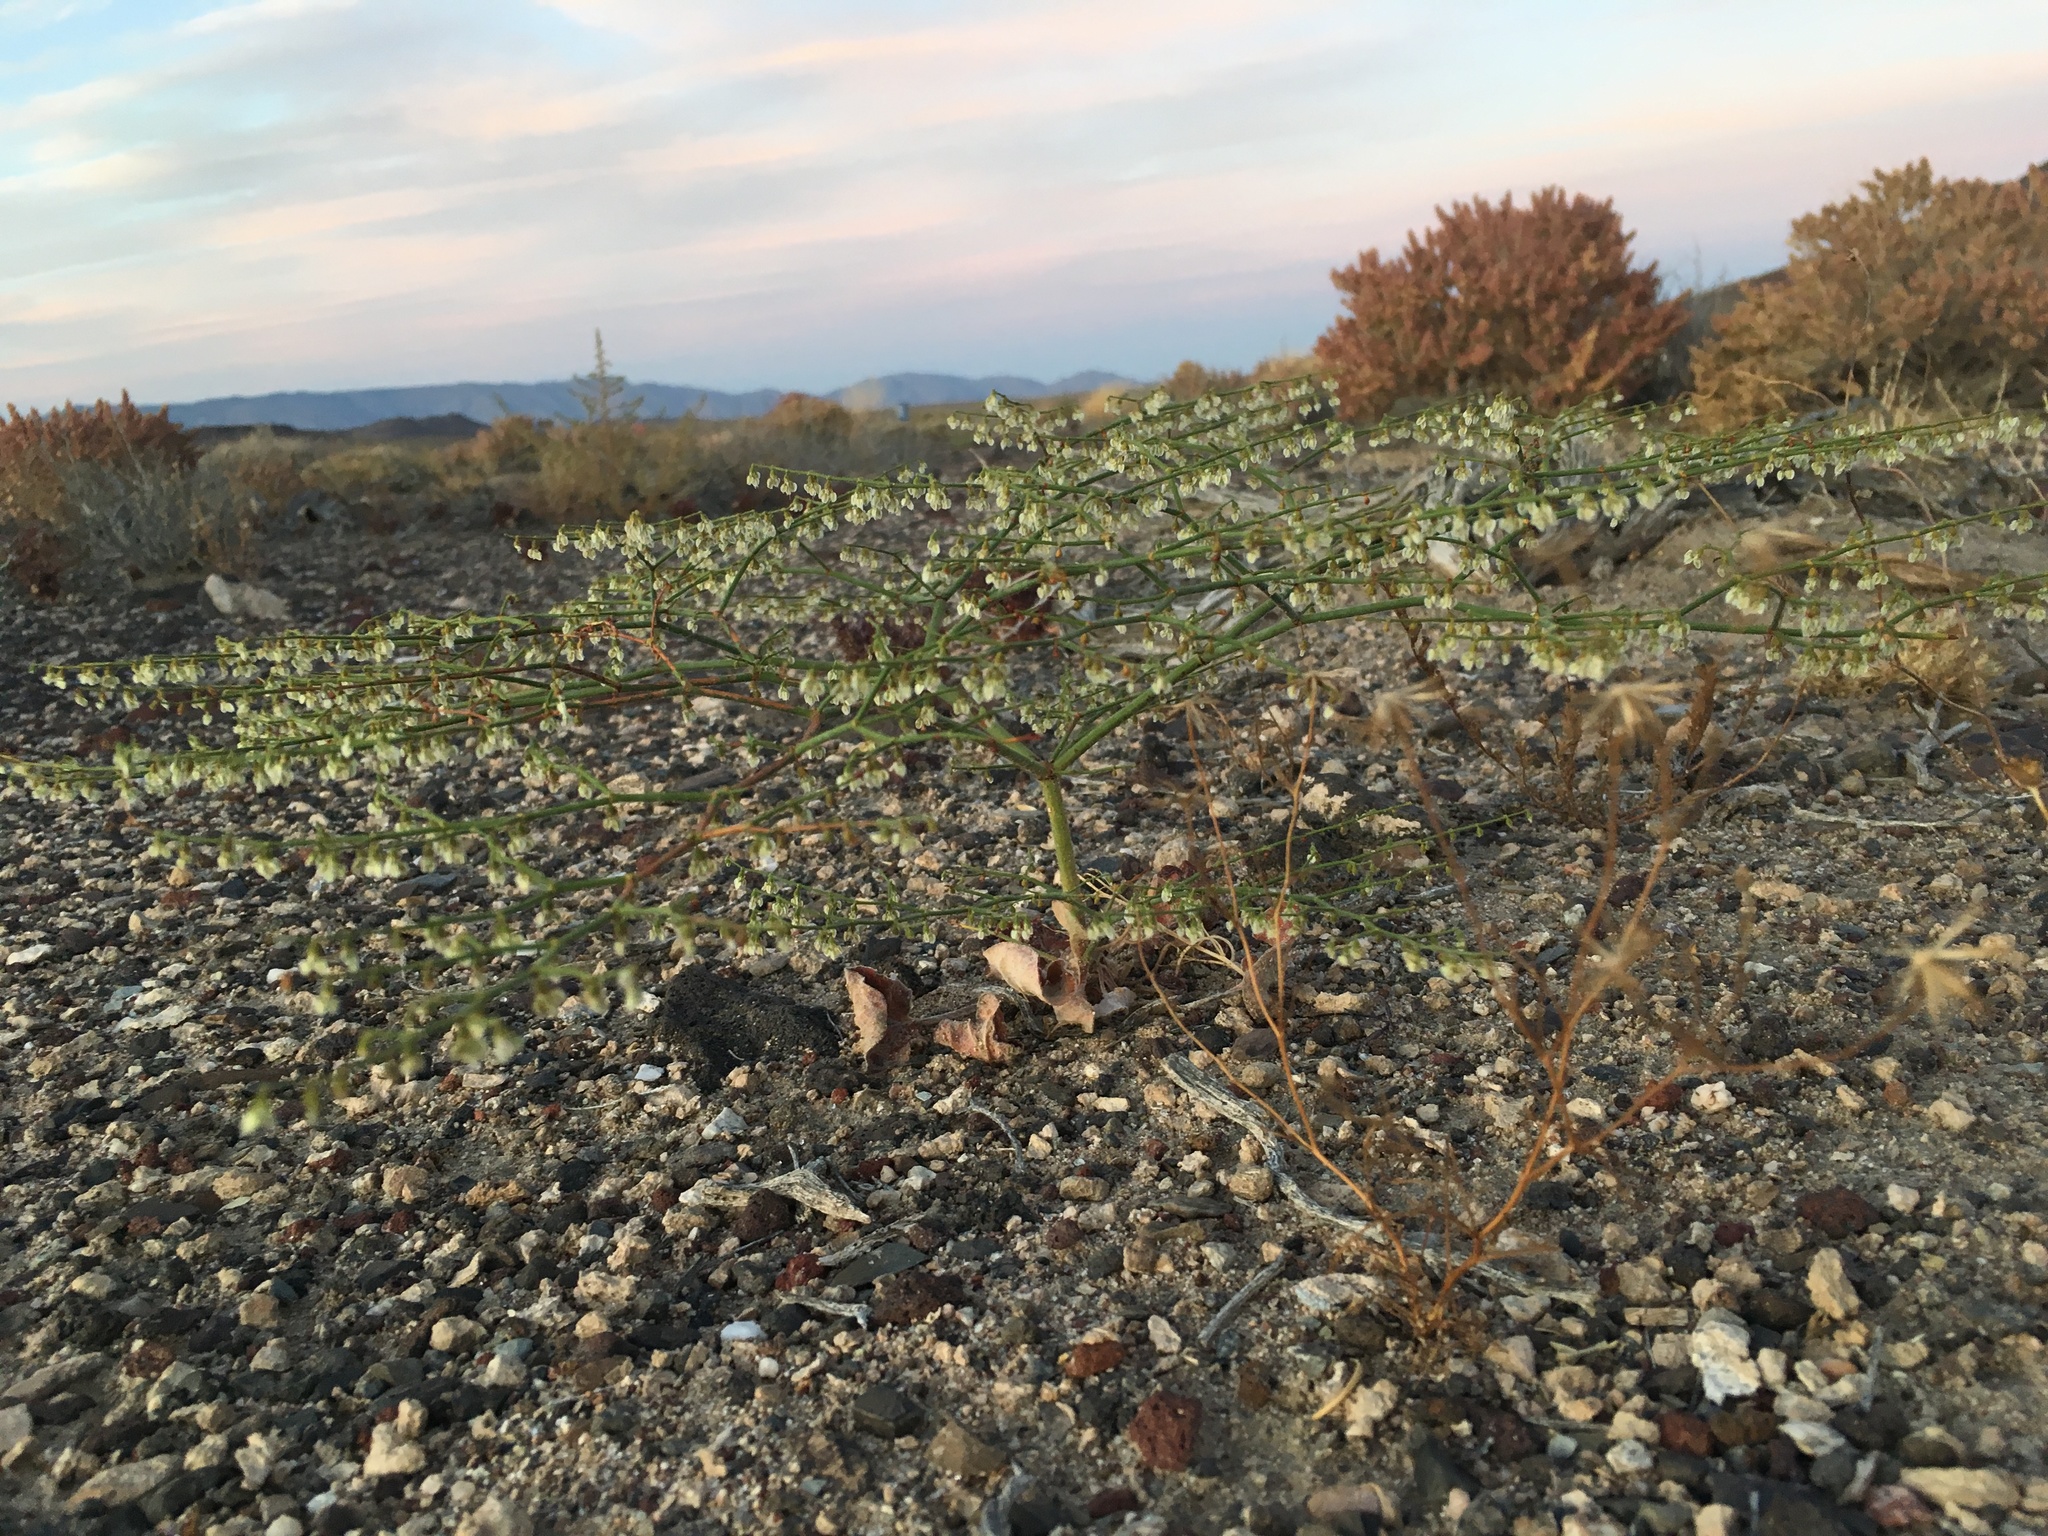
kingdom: Plantae
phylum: Tracheophyta
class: Magnoliopsida
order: Caryophyllales
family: Polygonaceae
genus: Eriogonum
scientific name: Eriogonum brachypodum
